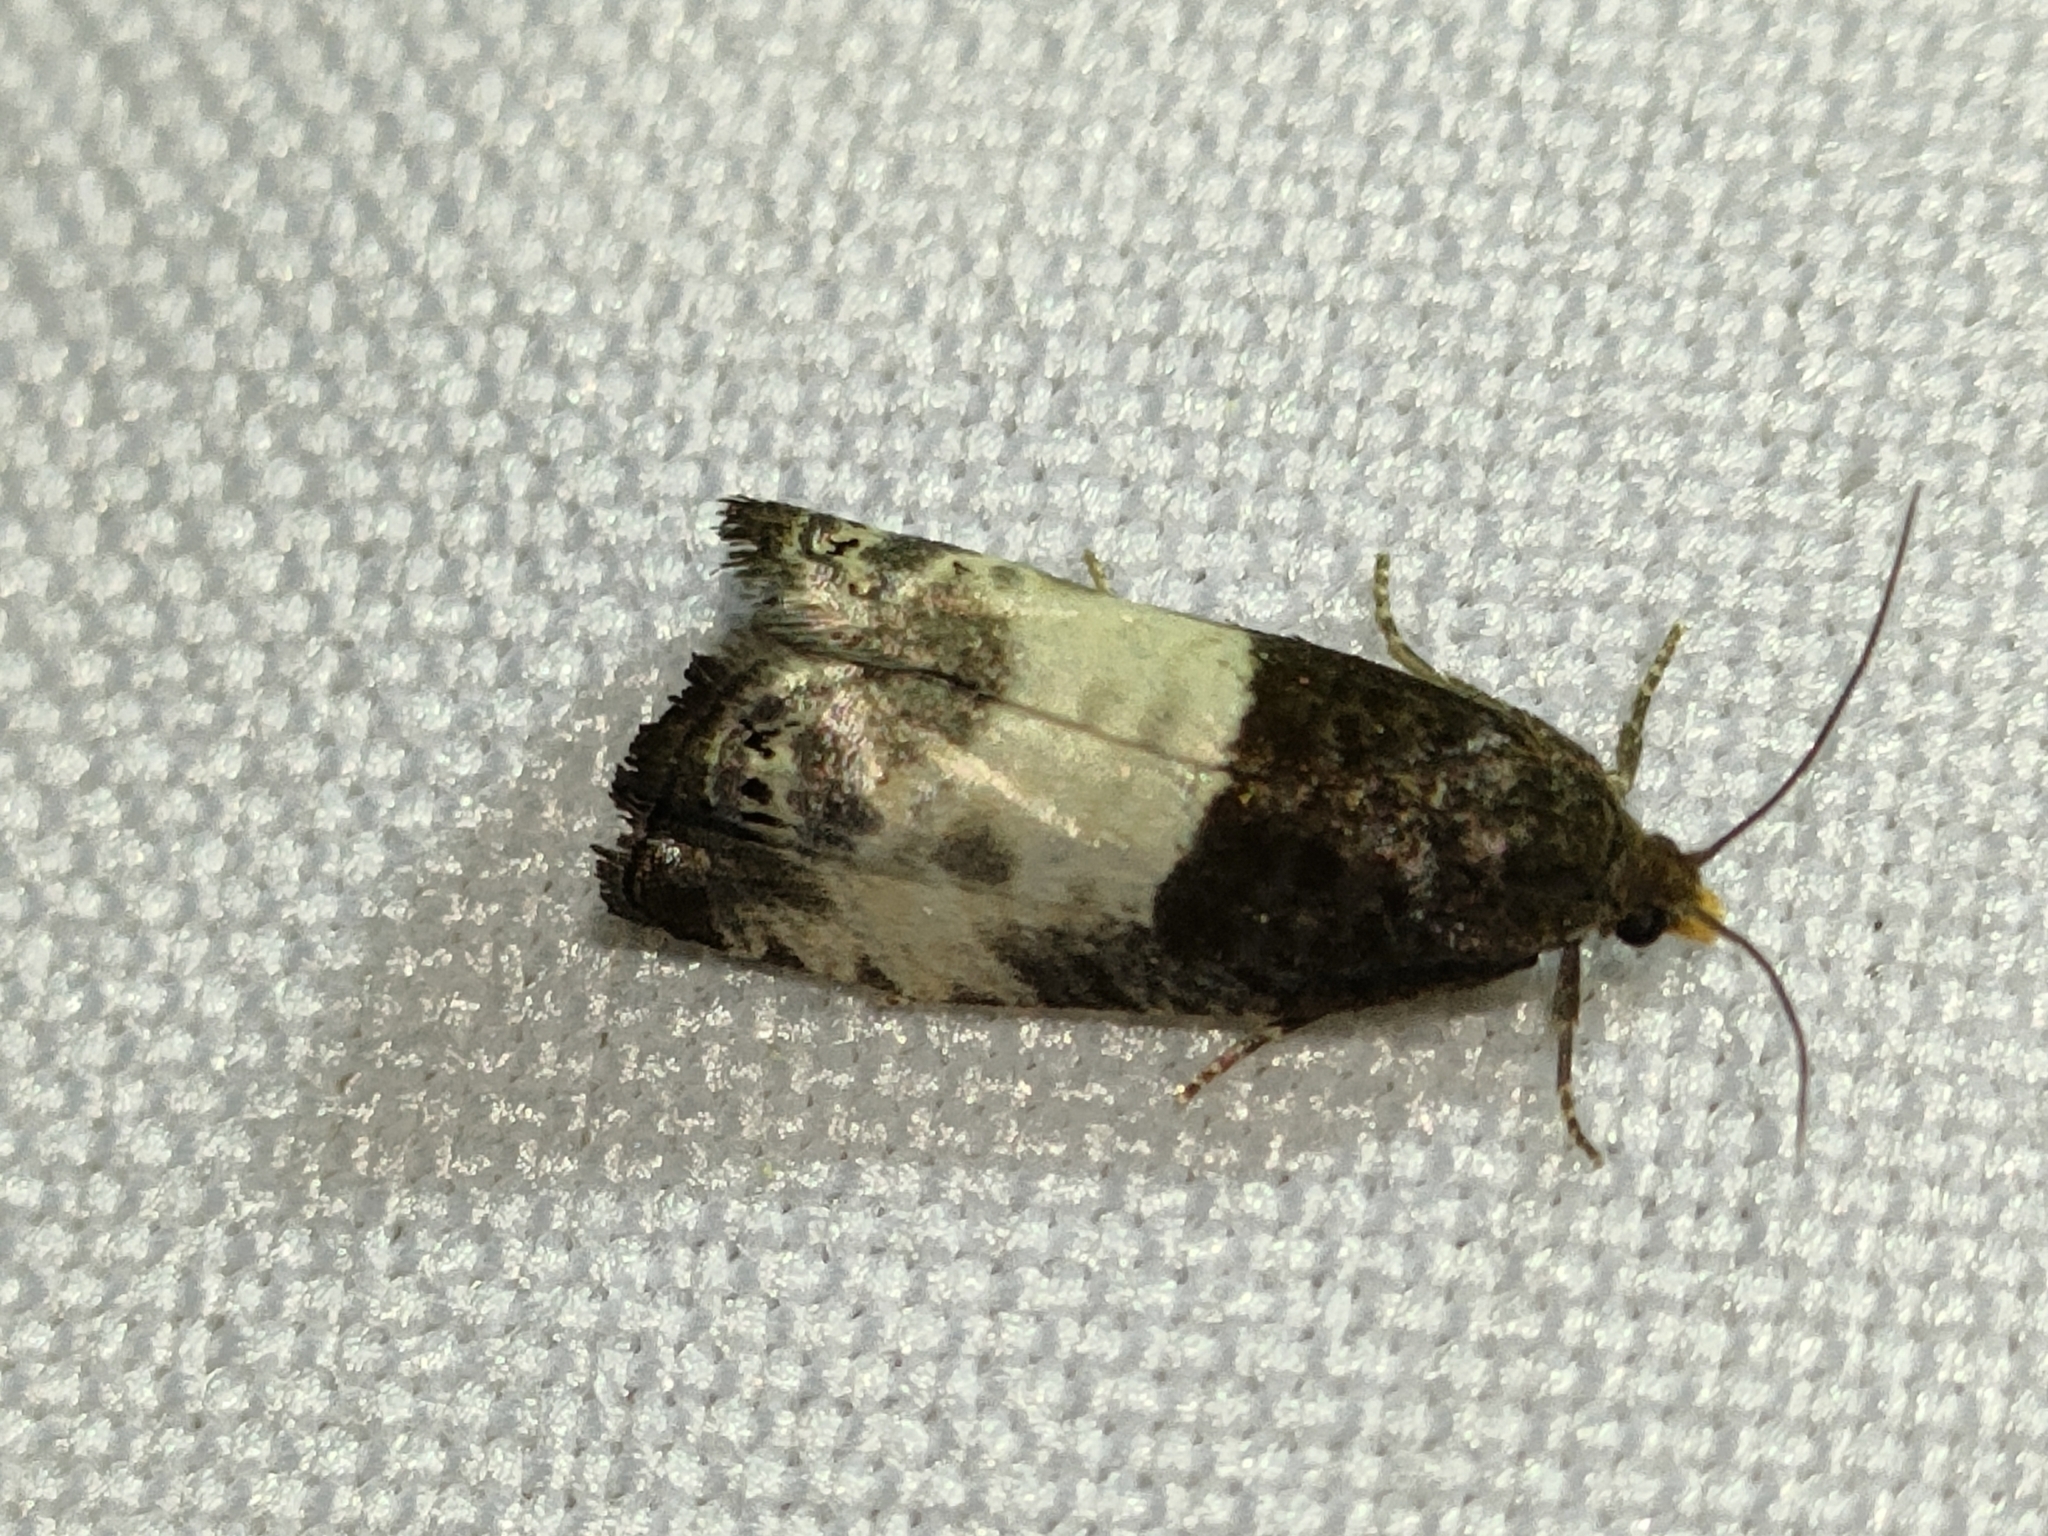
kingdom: Animalia
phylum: Arthropoda
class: Insecta
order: Lepidoptera
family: Tortricidae
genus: Notocelia
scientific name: Notocelia cynosbatella
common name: Yellow-faced bell moth
